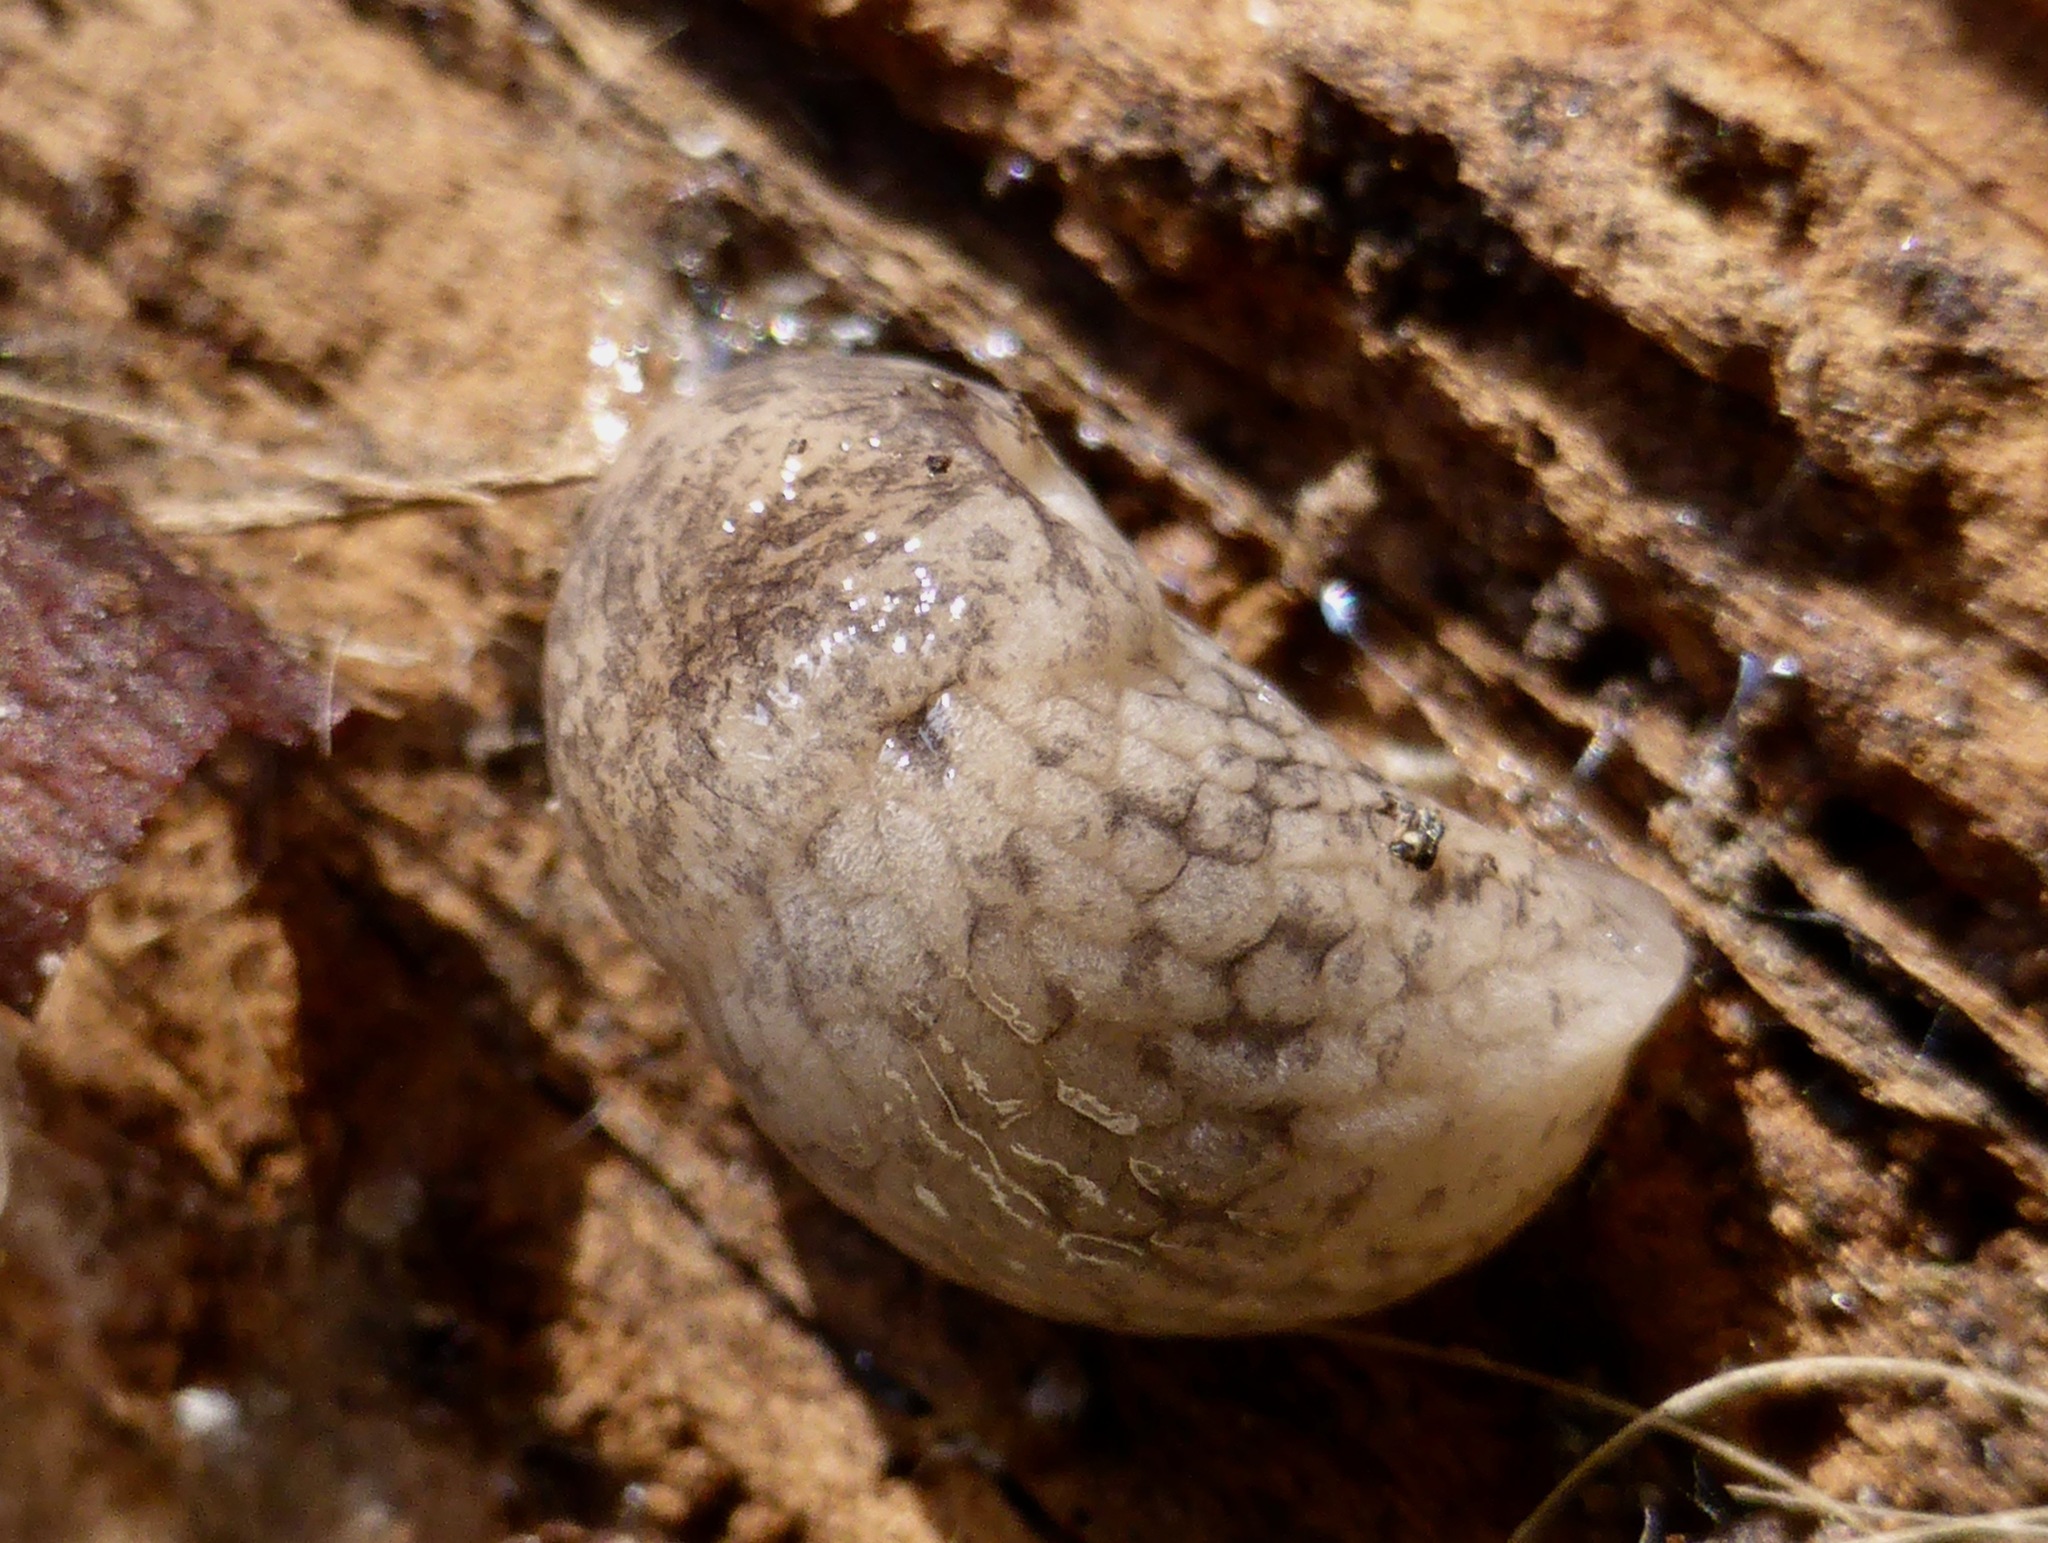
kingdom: Animalia
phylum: Mollusca
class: Gastropoda
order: Stylommatophora
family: Agriolimacidae
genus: Deroceras
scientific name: Deroceras reticulatum
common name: Gray field slug
